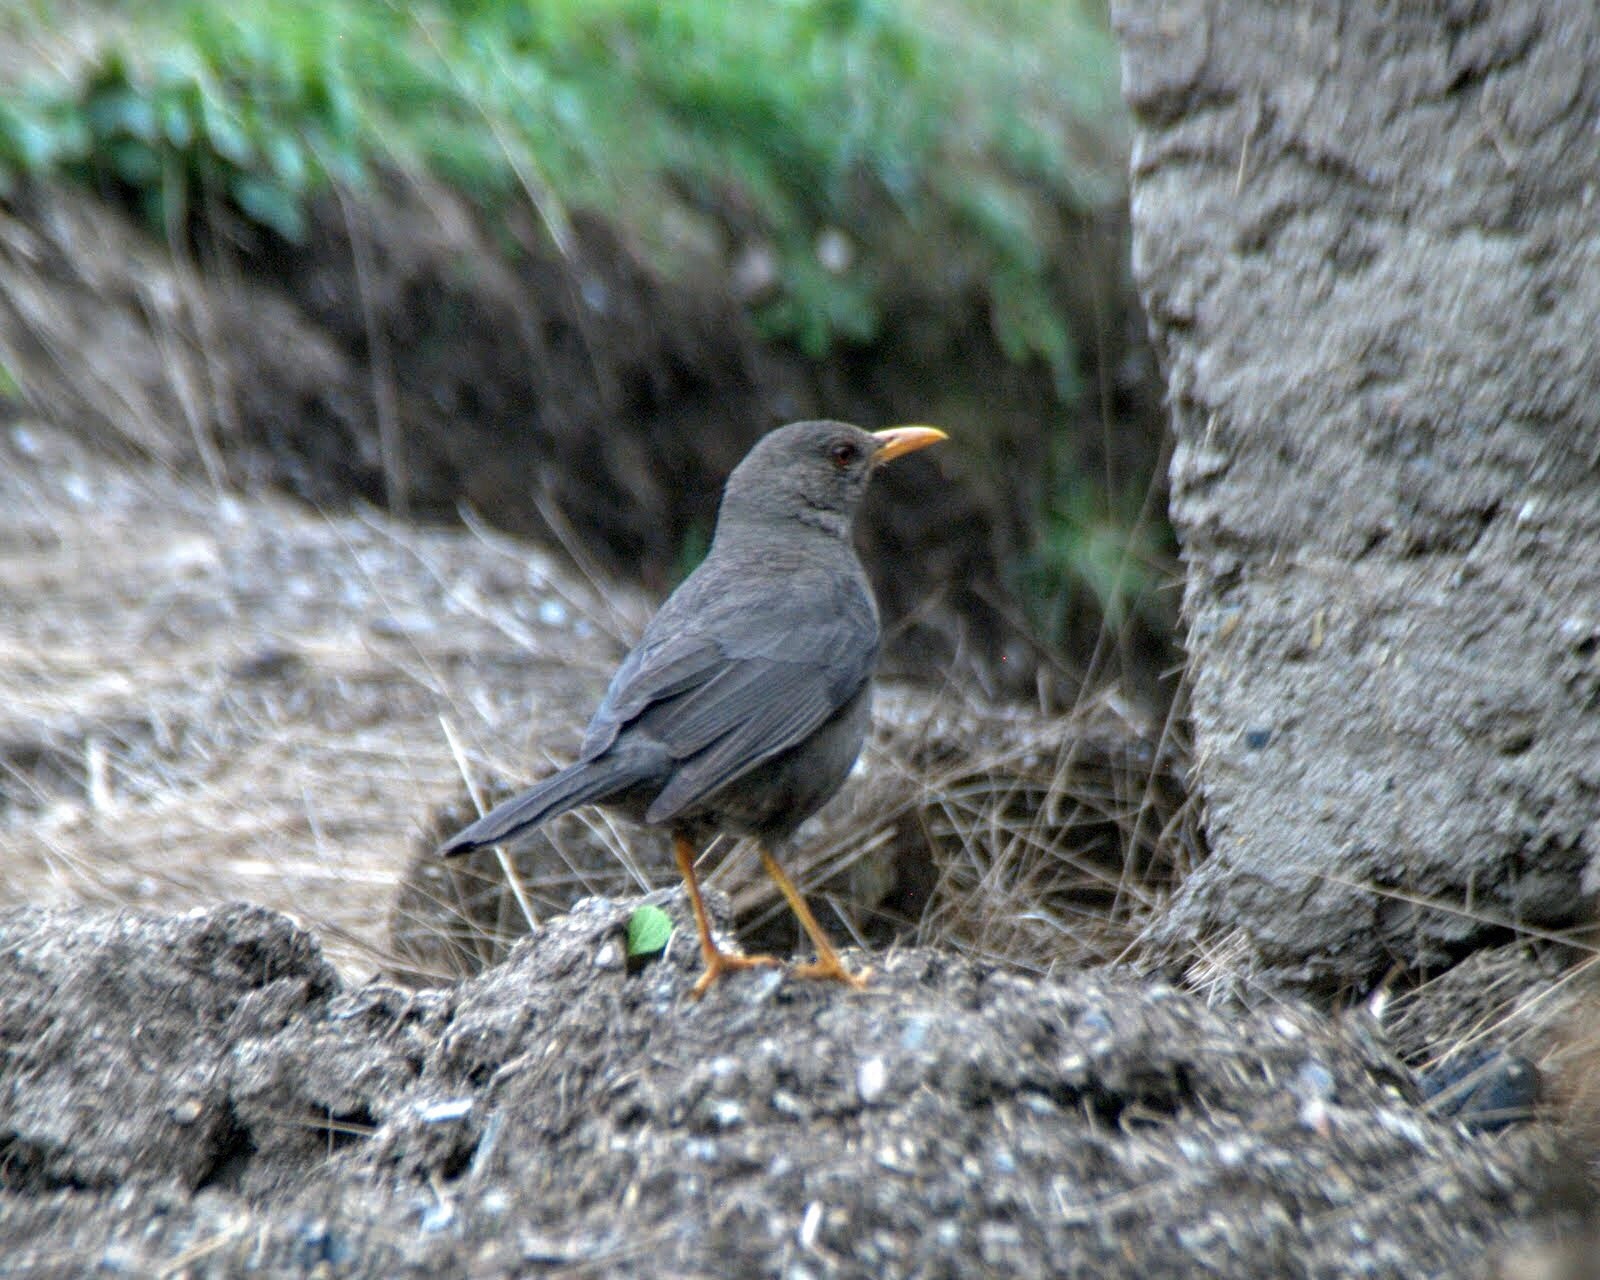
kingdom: Animalia
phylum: Chordata
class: Aves
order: Passeriformes
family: Turdidae
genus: Turdus
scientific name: Turdus chiguanco
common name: Chiguanco thrush
